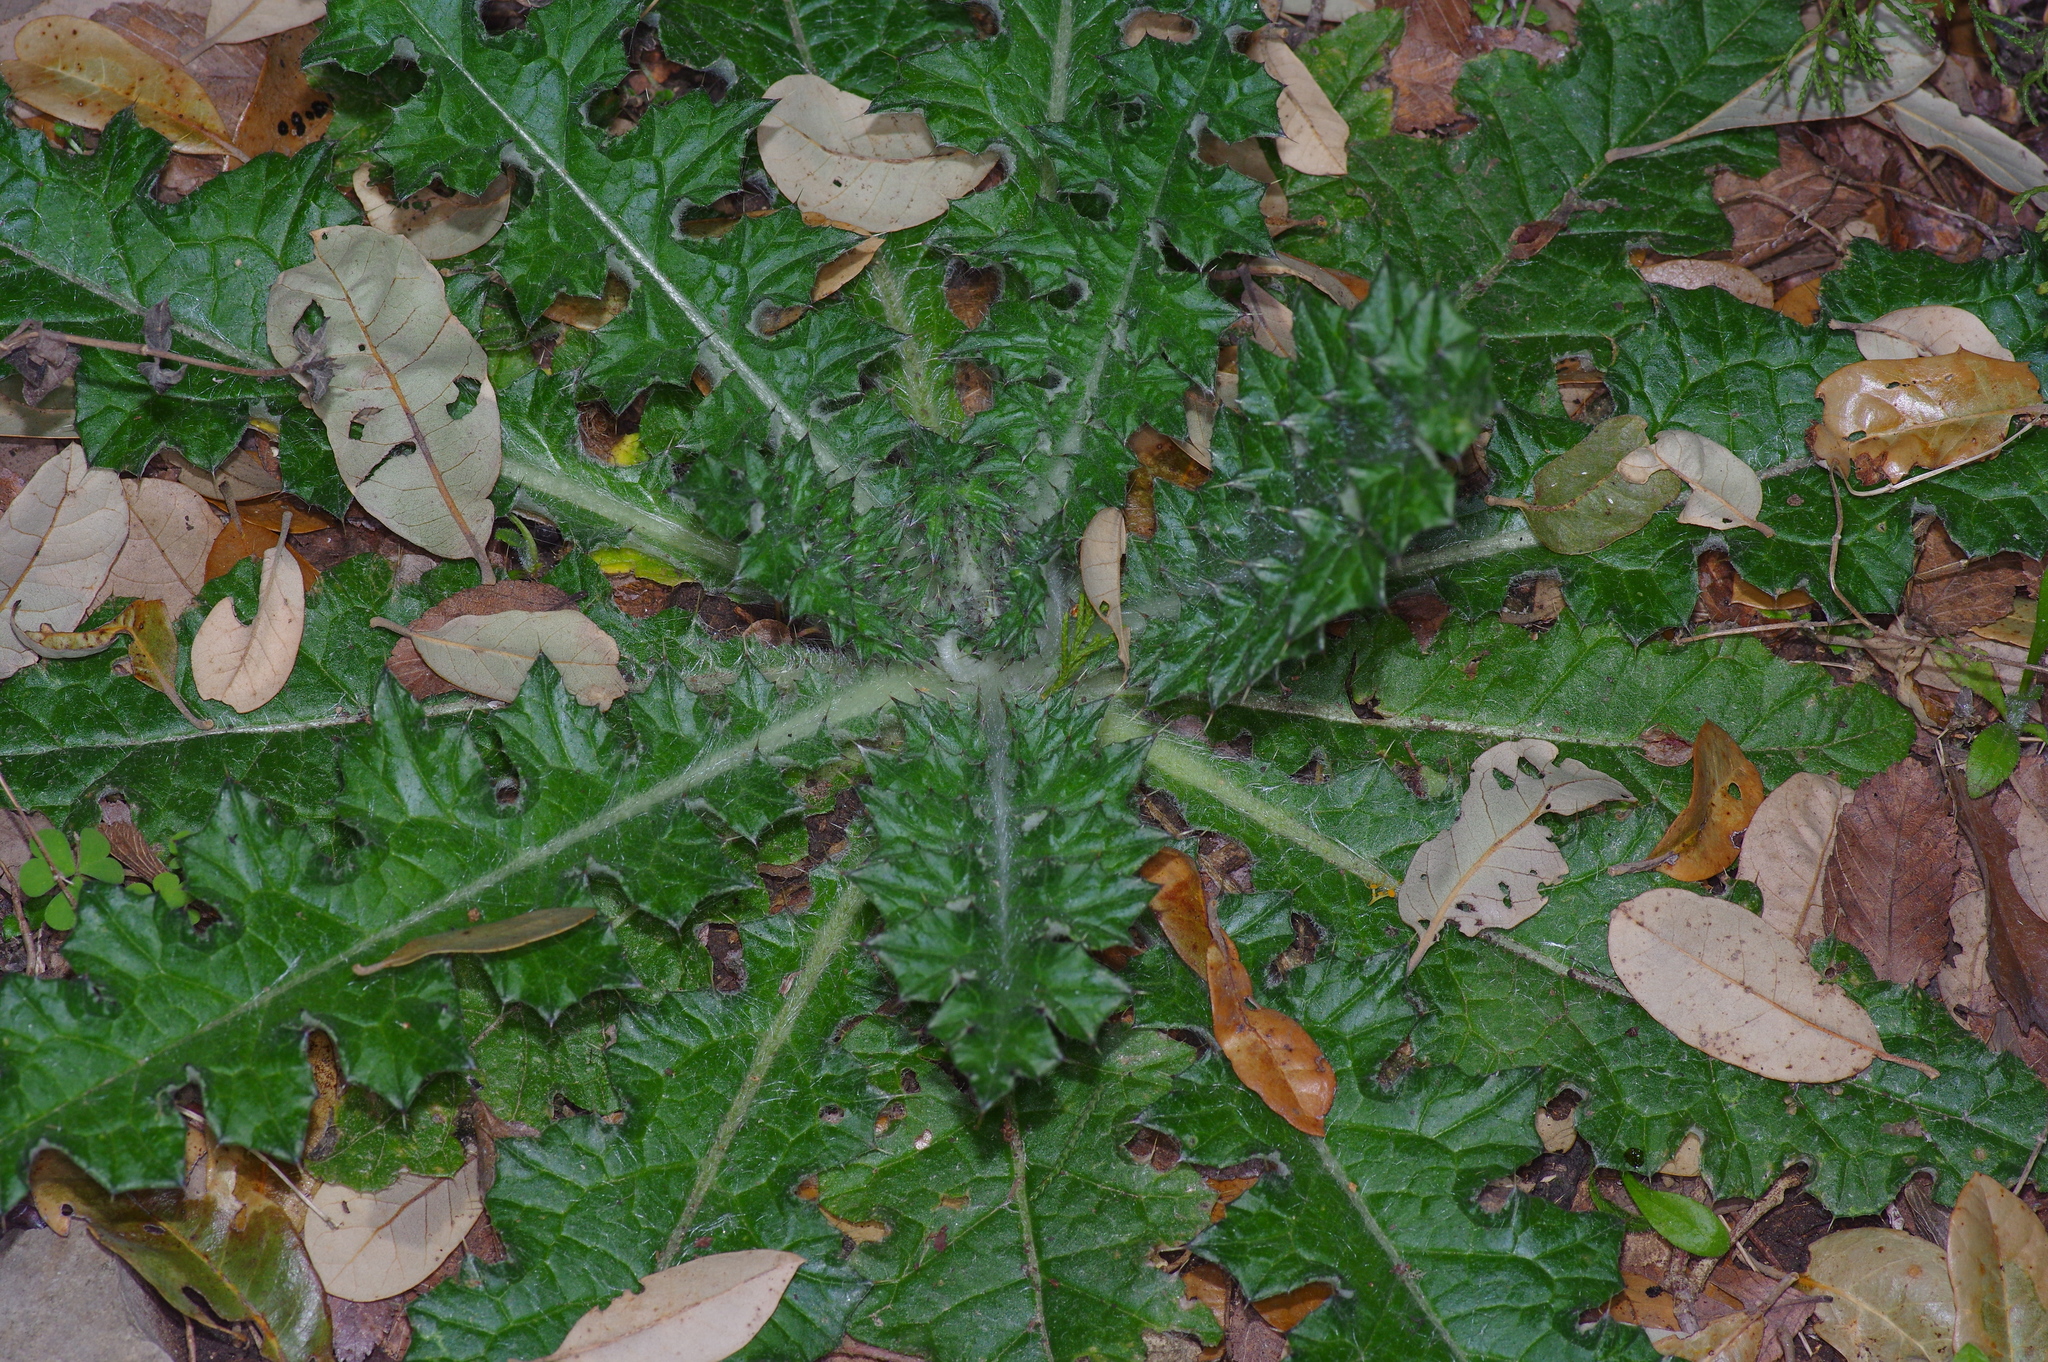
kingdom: Plantae
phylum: Tracheophyta
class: Magnoliopsida
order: Asterales
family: Asteraceae
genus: Cirsium
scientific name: Cirsium vulgare
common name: Bull thistle
